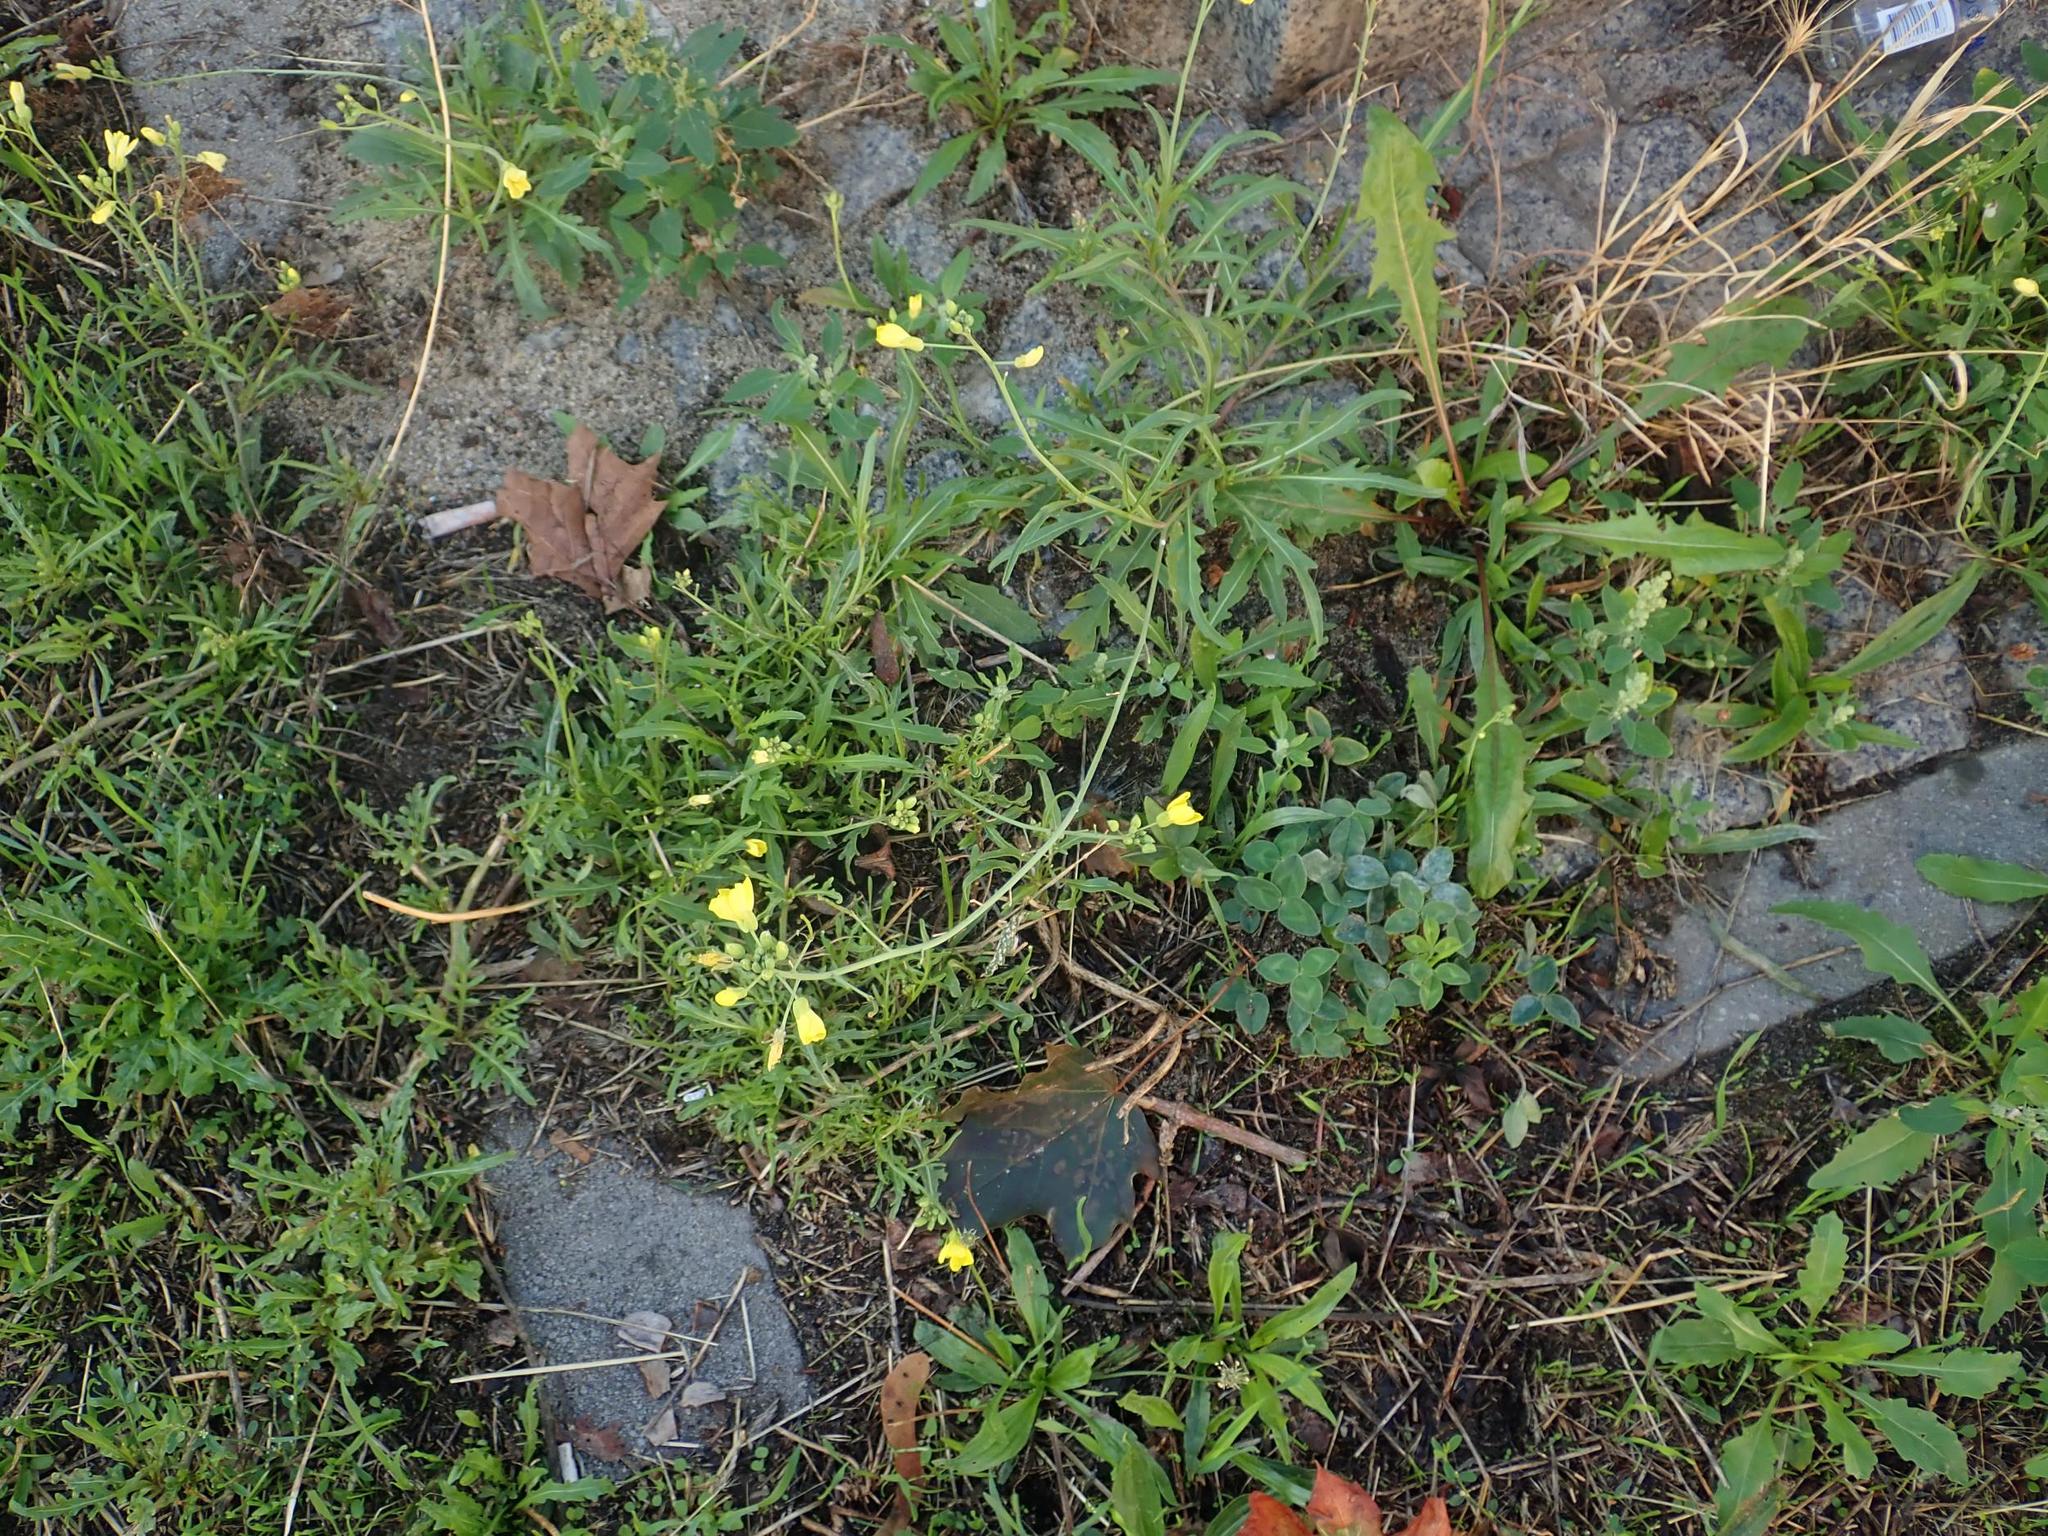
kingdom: Plantae
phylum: Tracheophyta
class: Magnoliopsida
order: Brassicales
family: Brassicaceae
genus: Diplotaxis
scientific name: Diplotaxis tenuifolia
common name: Perennial wall-rocket
